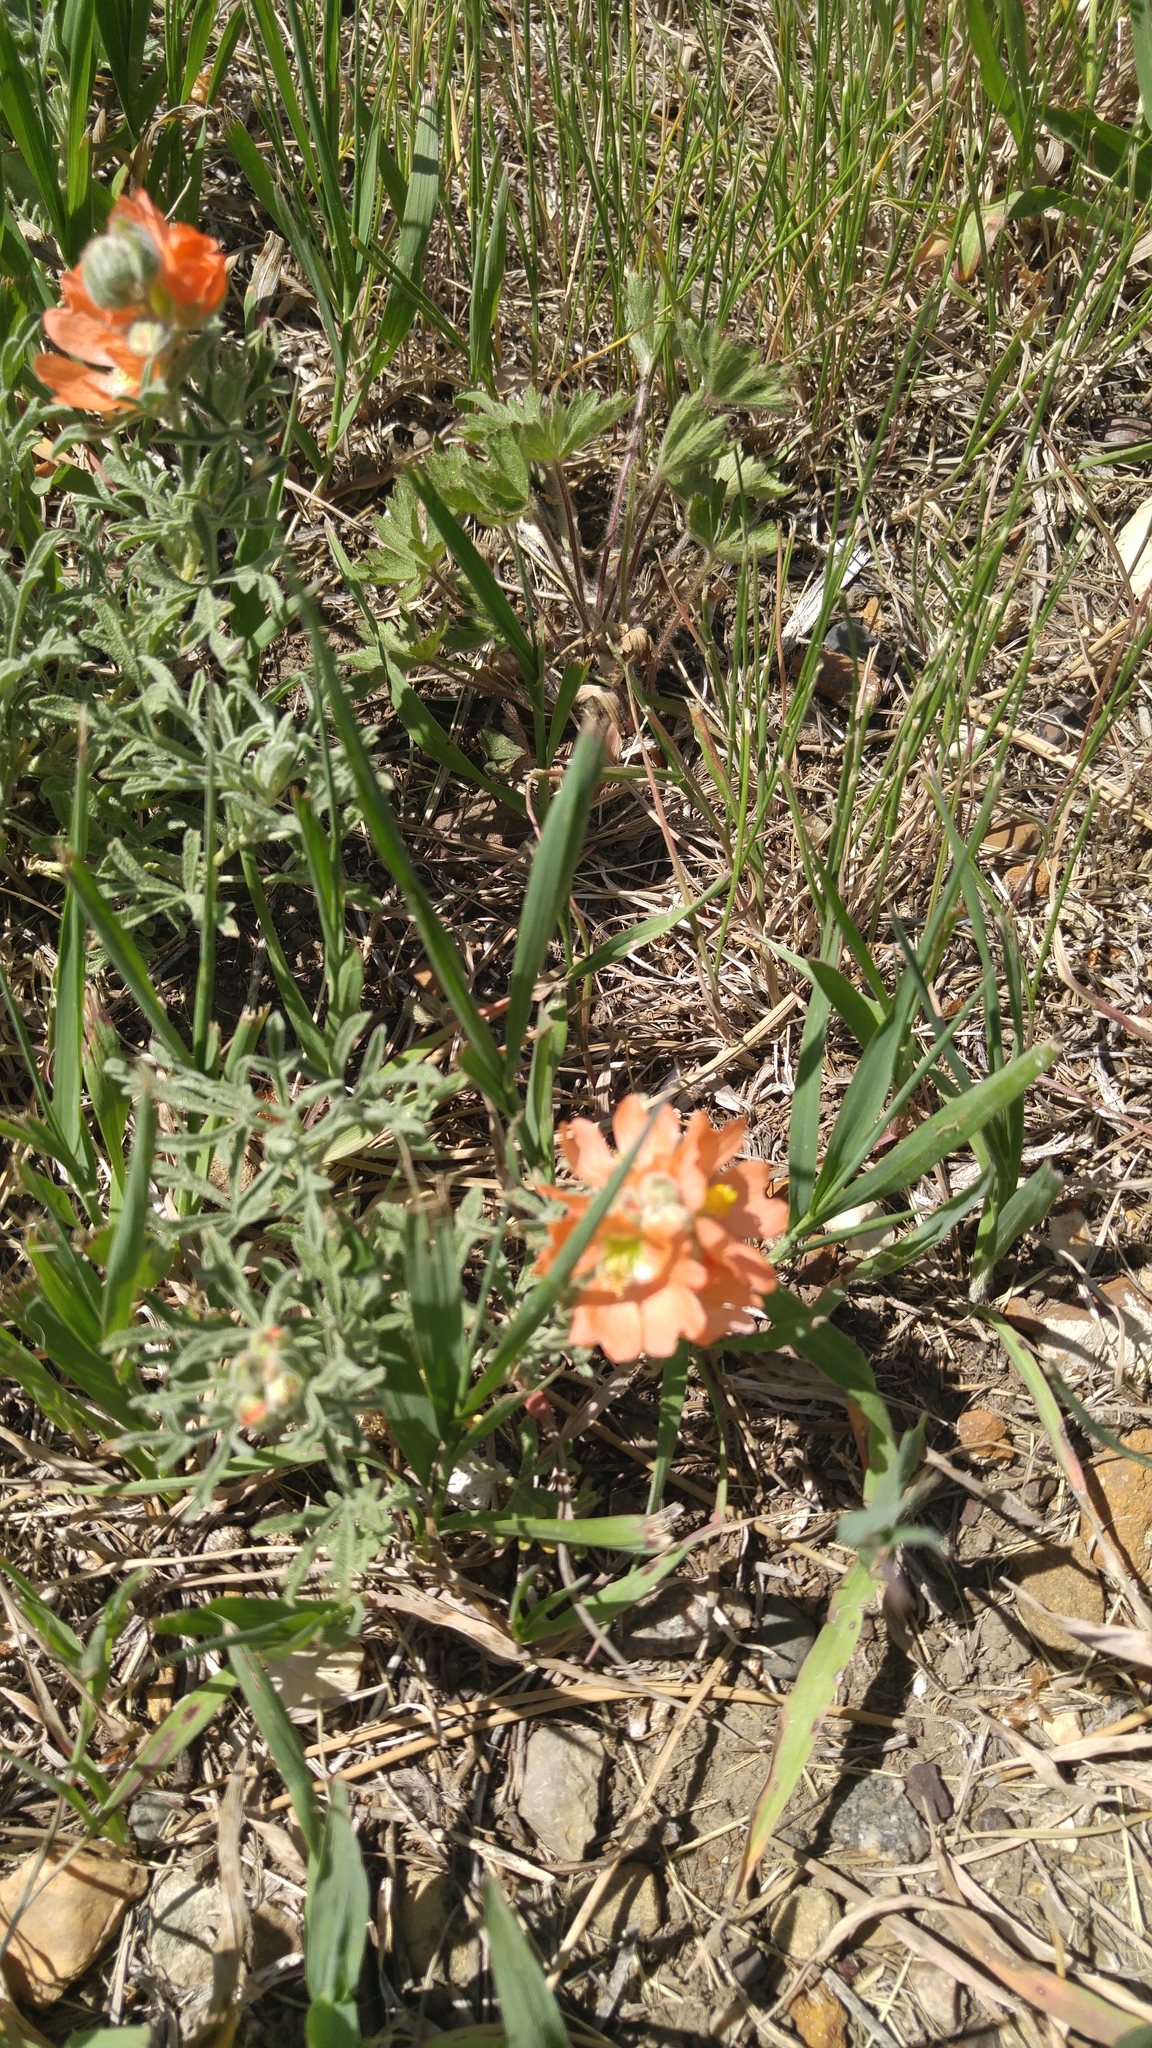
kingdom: Plantae
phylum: Tracheophyta
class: Magnoliopsida
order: Malvales
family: Malvaceae
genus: Sphaeralcea
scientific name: Sphaeralcea coccinea
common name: Moss-rose
